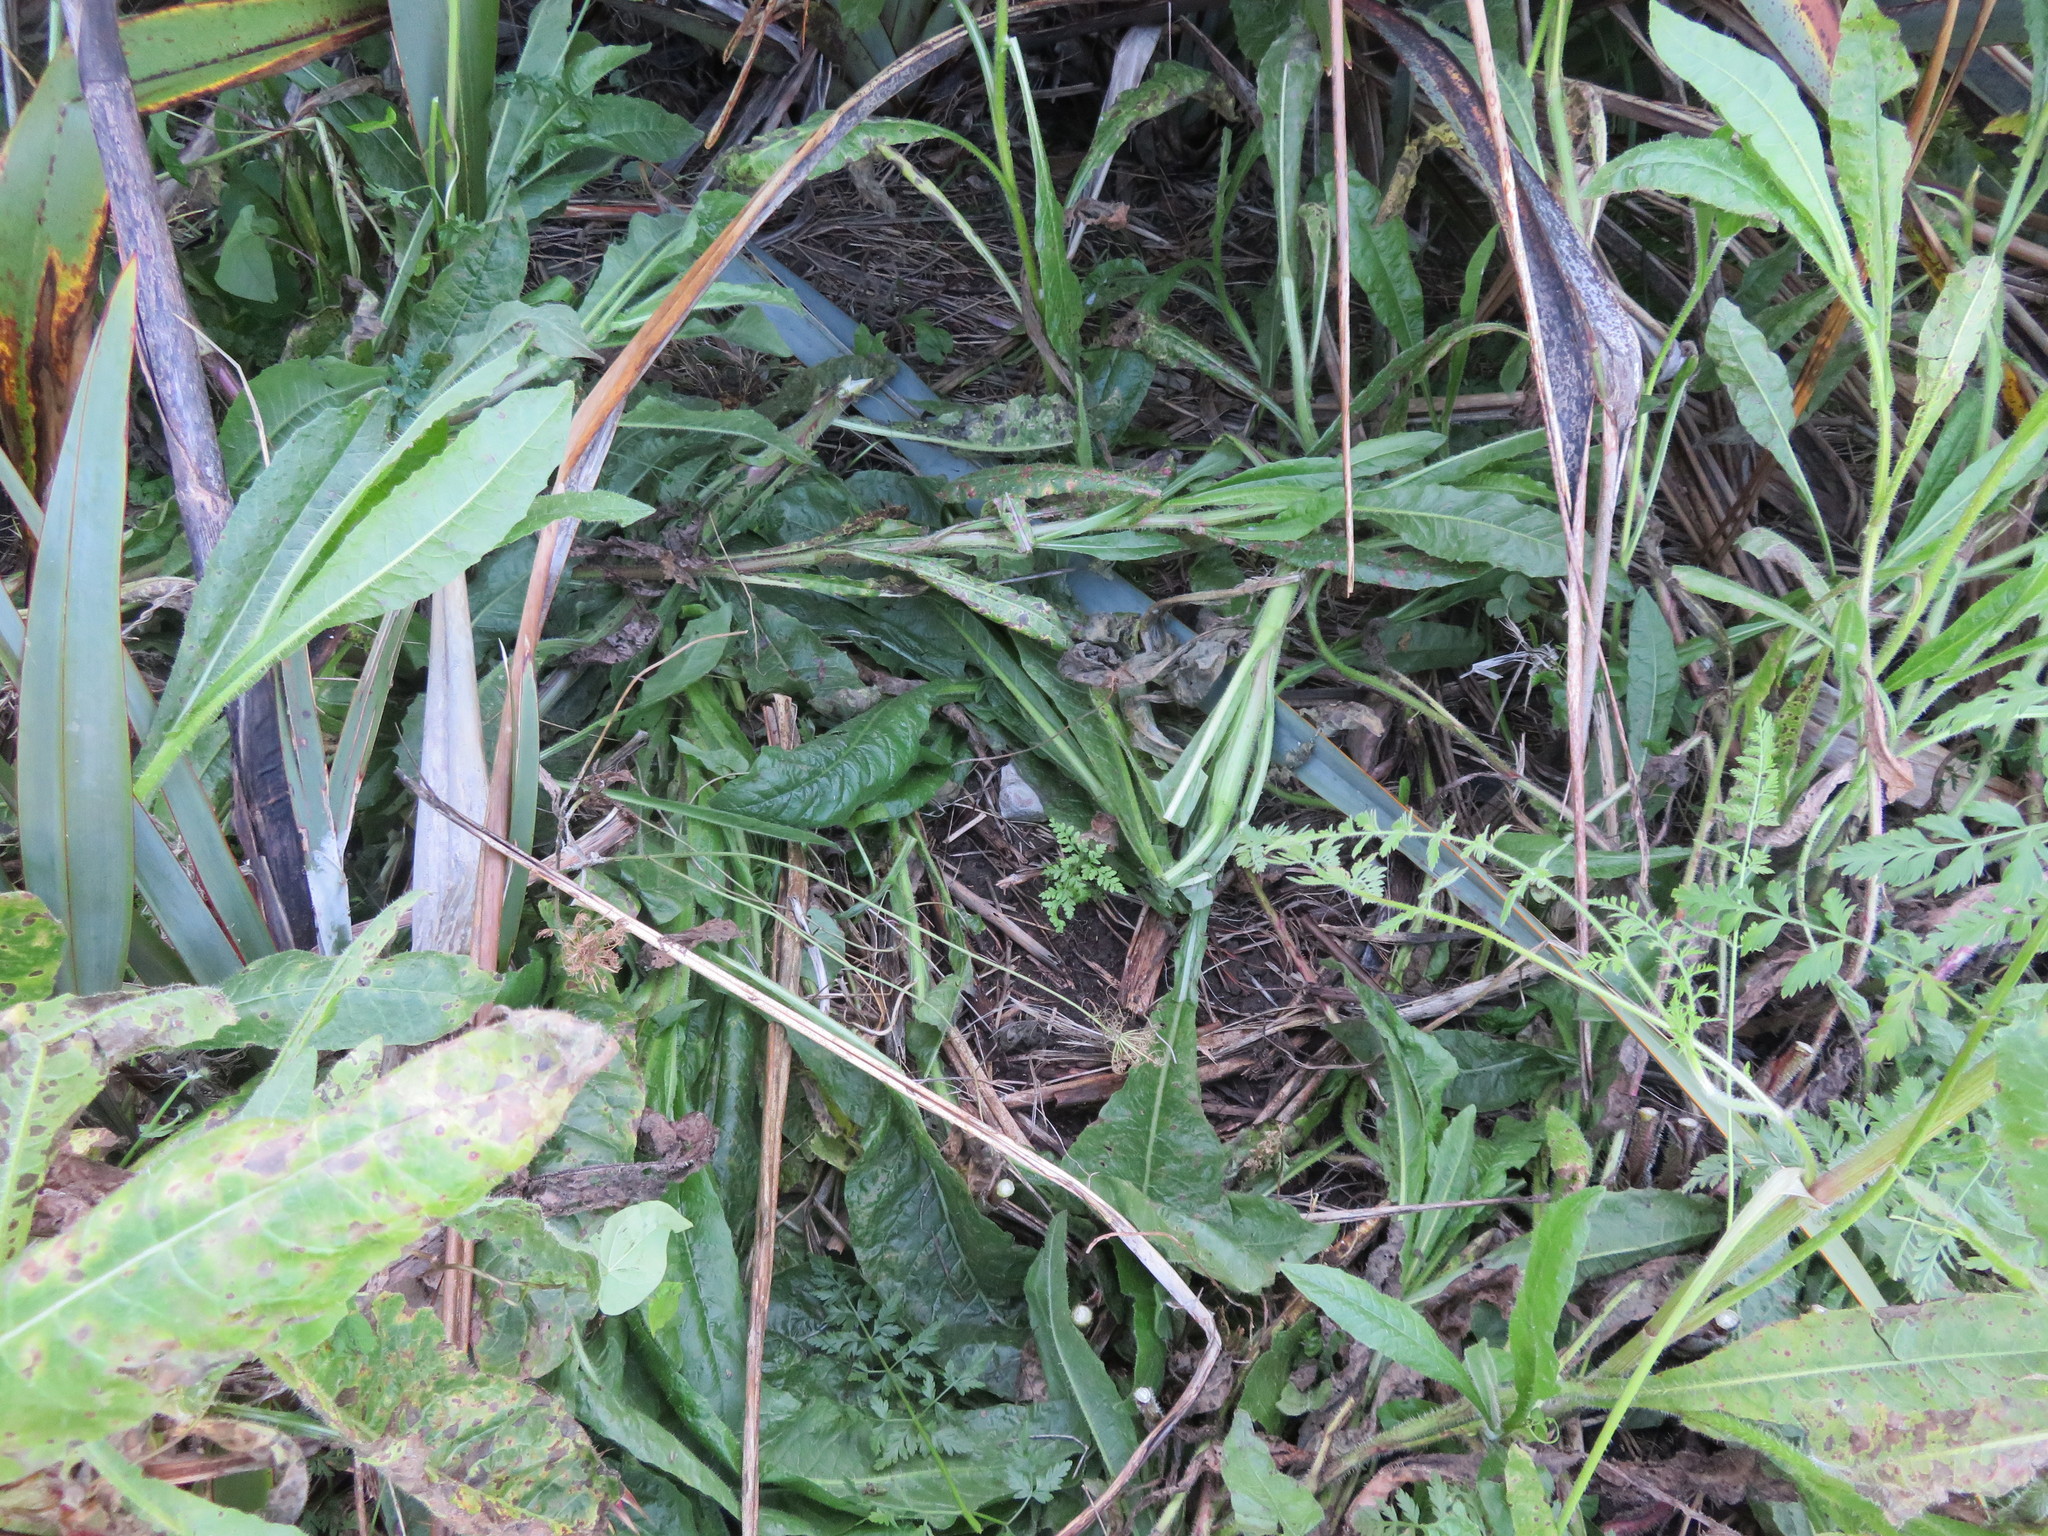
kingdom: Plantae
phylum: Tracheophyta
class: Polypodiopsida
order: Polypodiales
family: Pteridaceae
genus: Pteris
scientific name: Pteris tremula
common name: Australian brake
